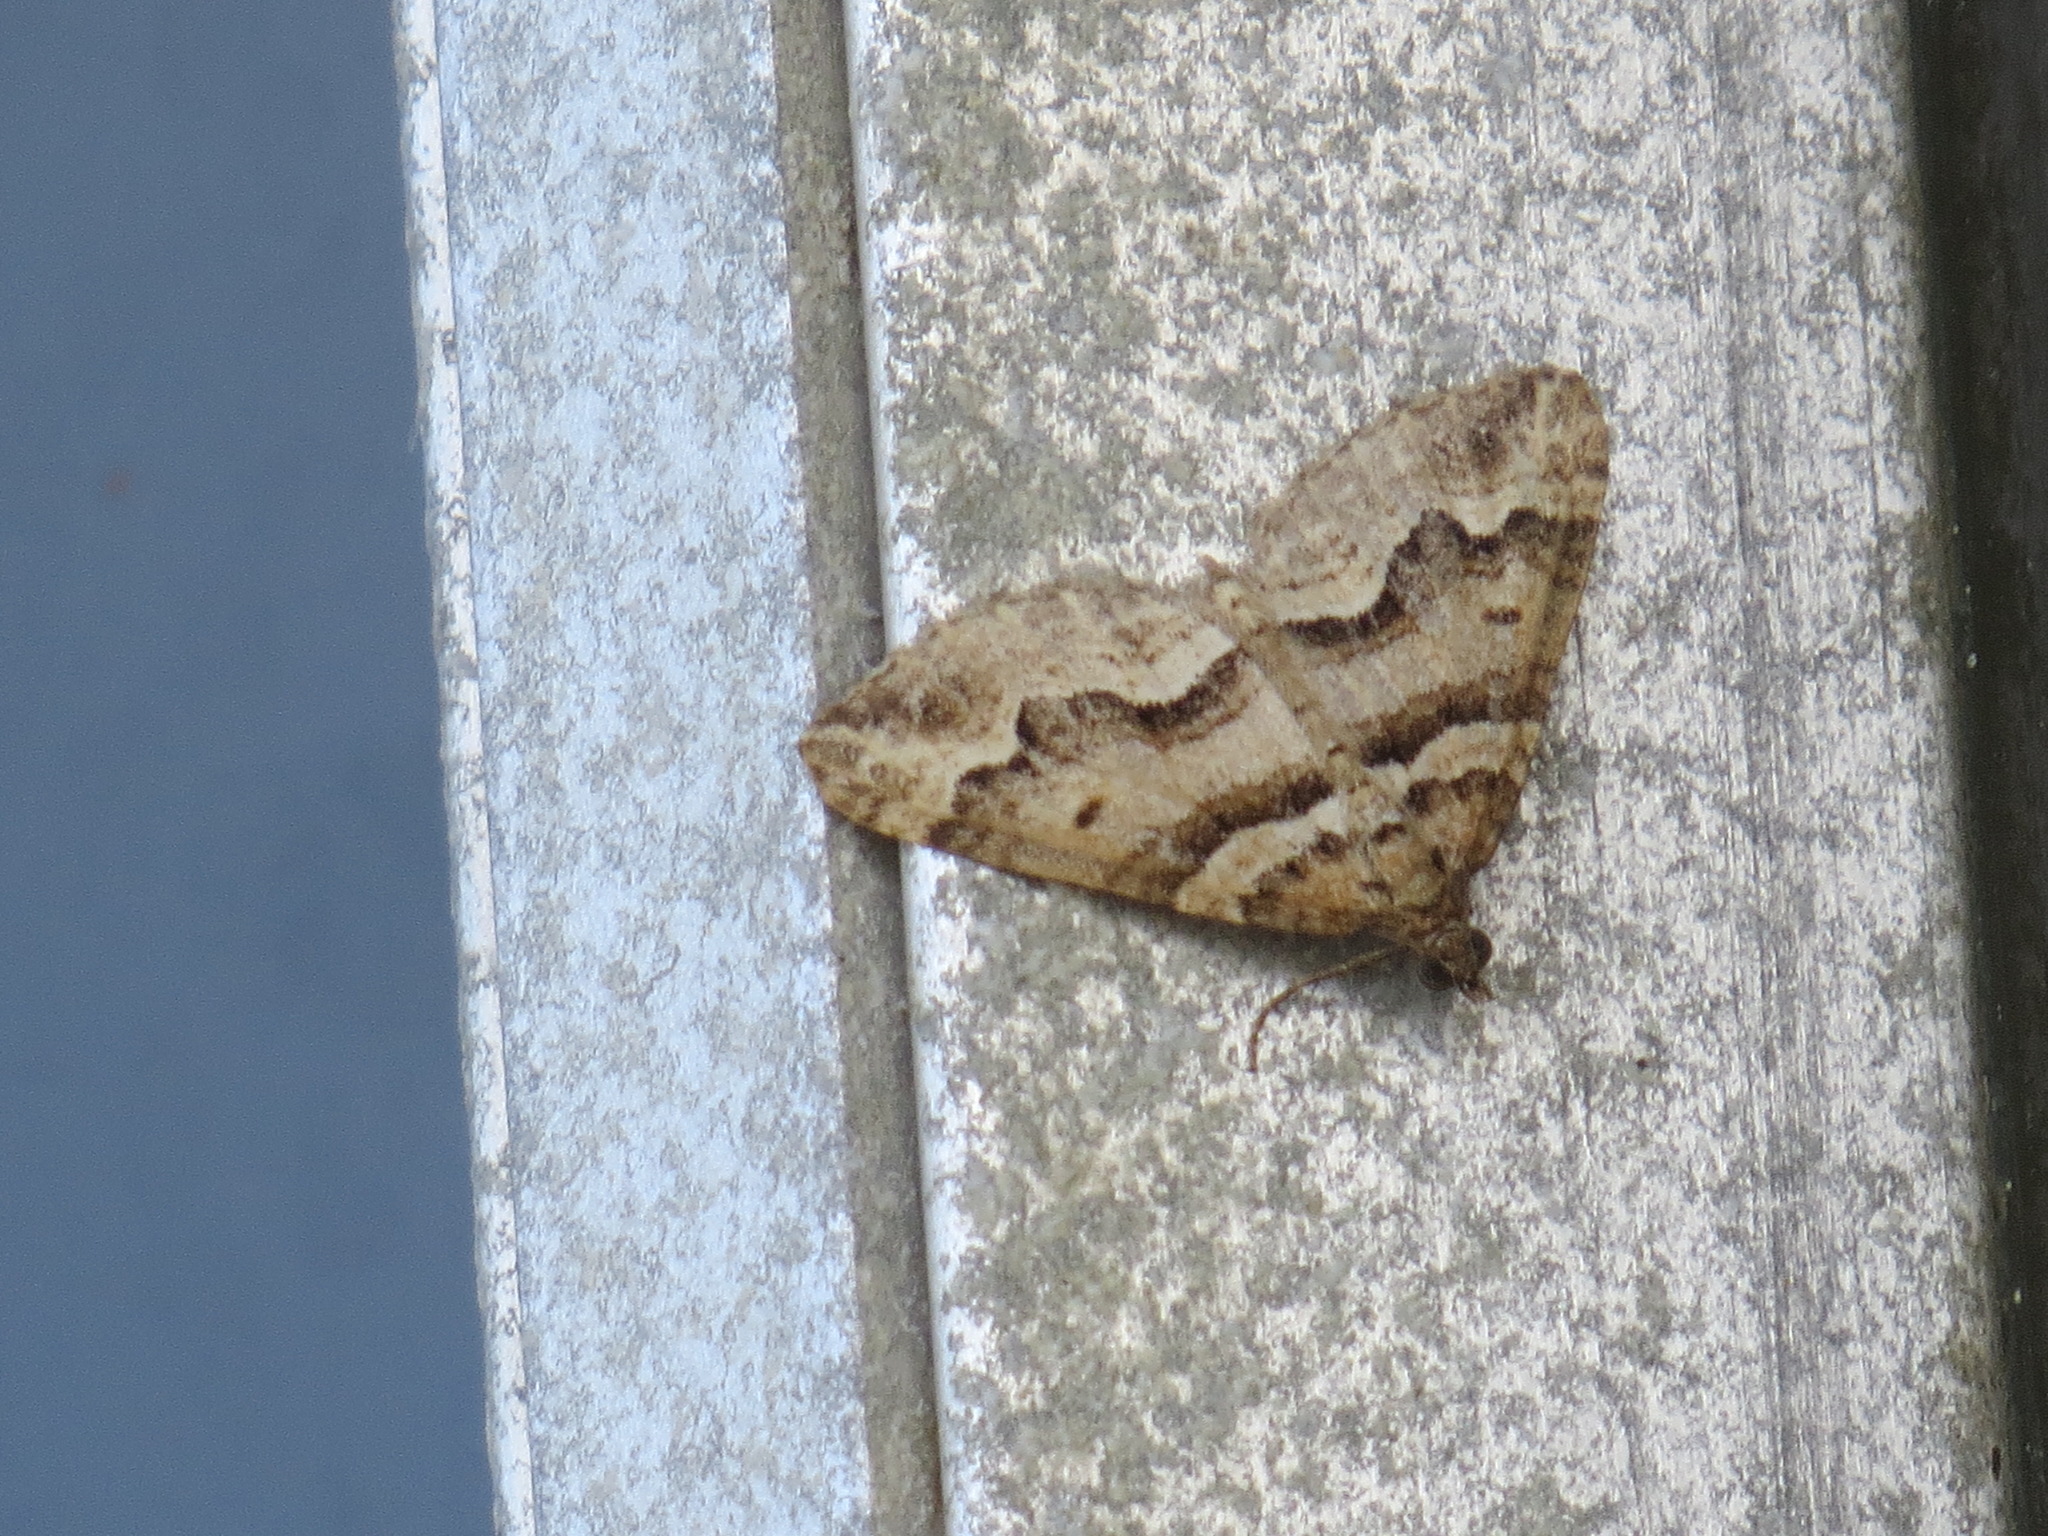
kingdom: Animalia
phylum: Arthropoda
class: Insecta
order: Lepidoptera
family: Geometridae
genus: Perizoma
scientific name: Perizoma epictata
